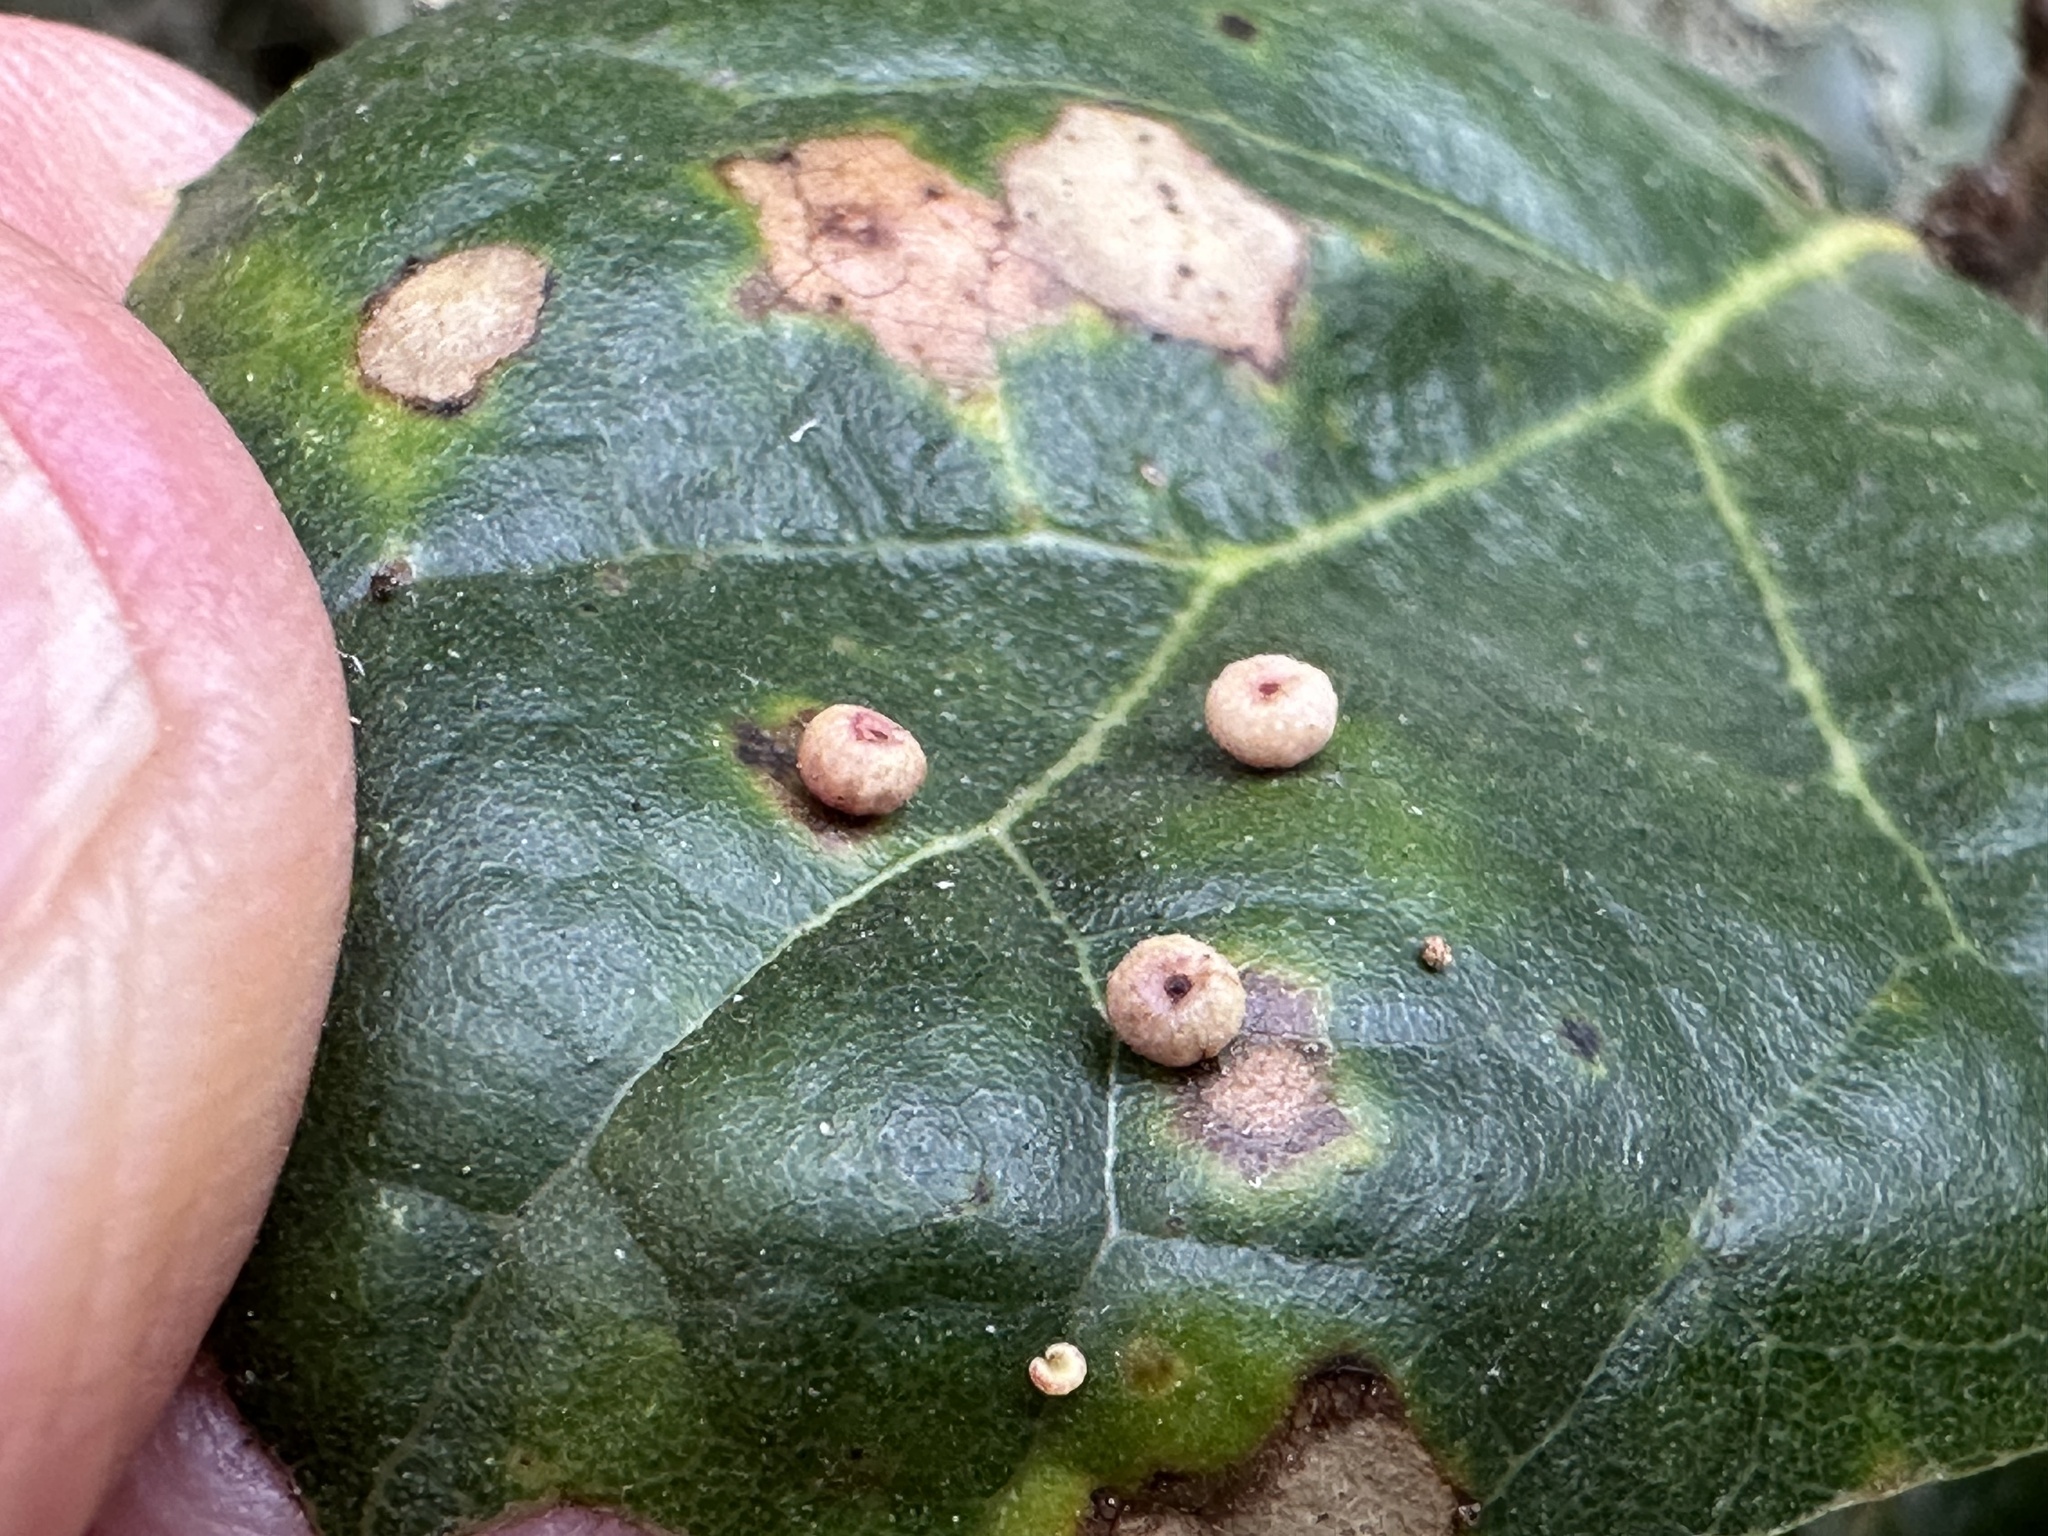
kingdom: Animalia
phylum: Arthropoda
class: Insecta
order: Hymenoptera
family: Cynipidae
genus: Dryocosmus
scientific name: Dryocosmus
